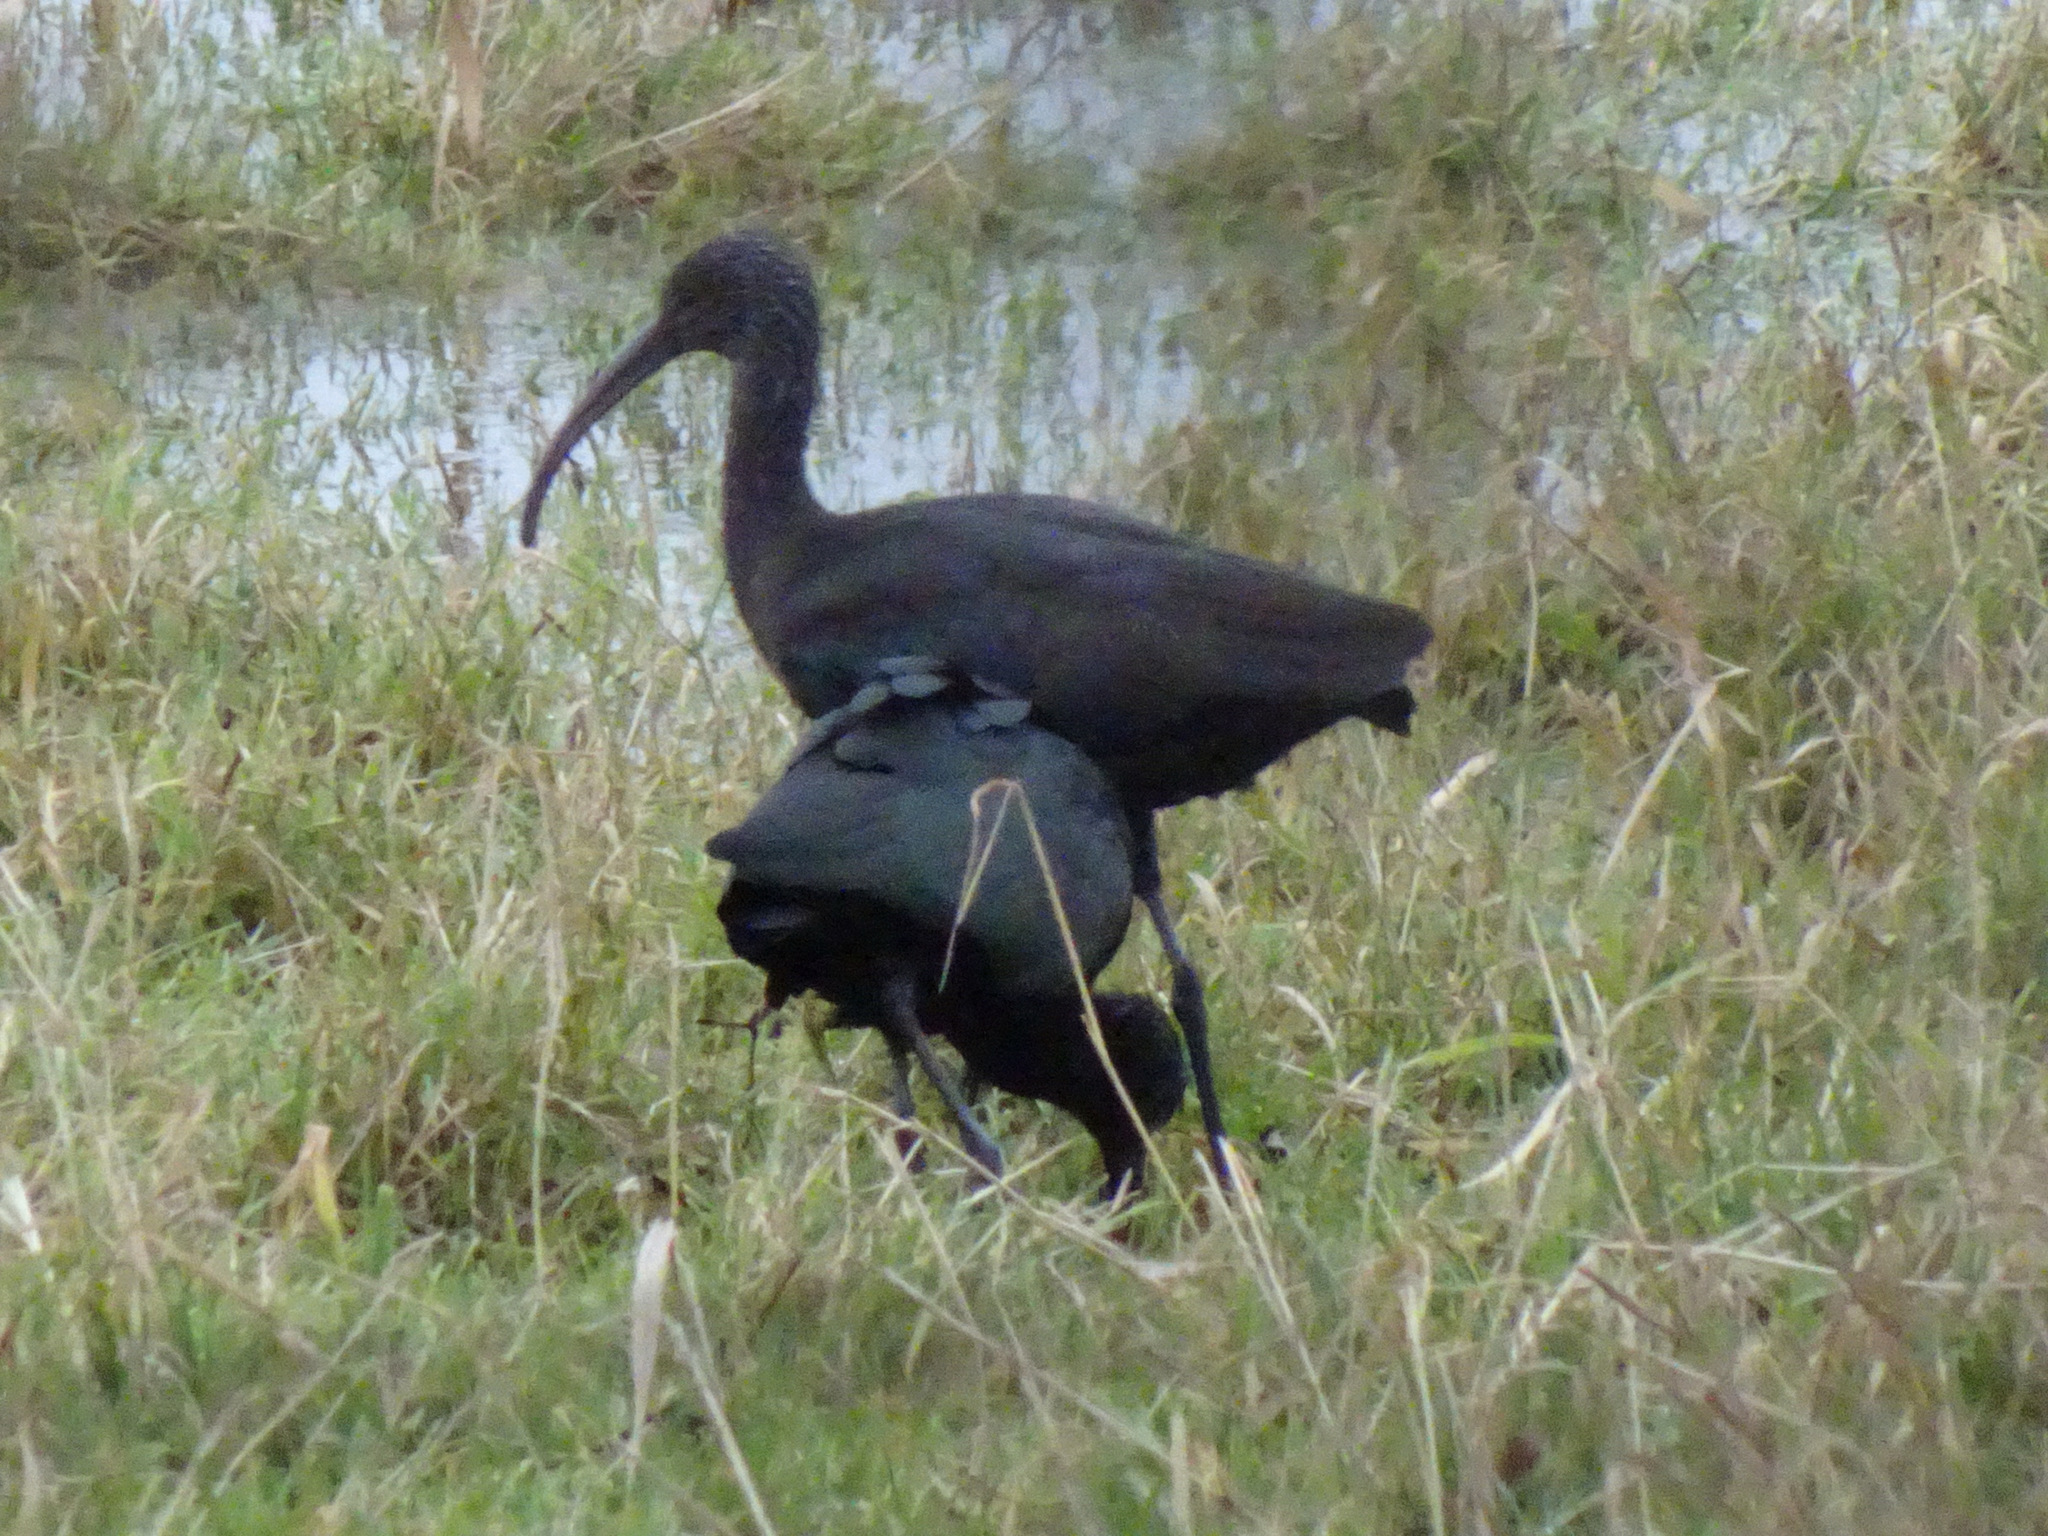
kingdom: Animalia
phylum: Chordata
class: Aves
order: Pelecaniformes
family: Threskiornithidae
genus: Plegadis
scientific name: Plegadis falcinellus
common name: Glossy ibis
